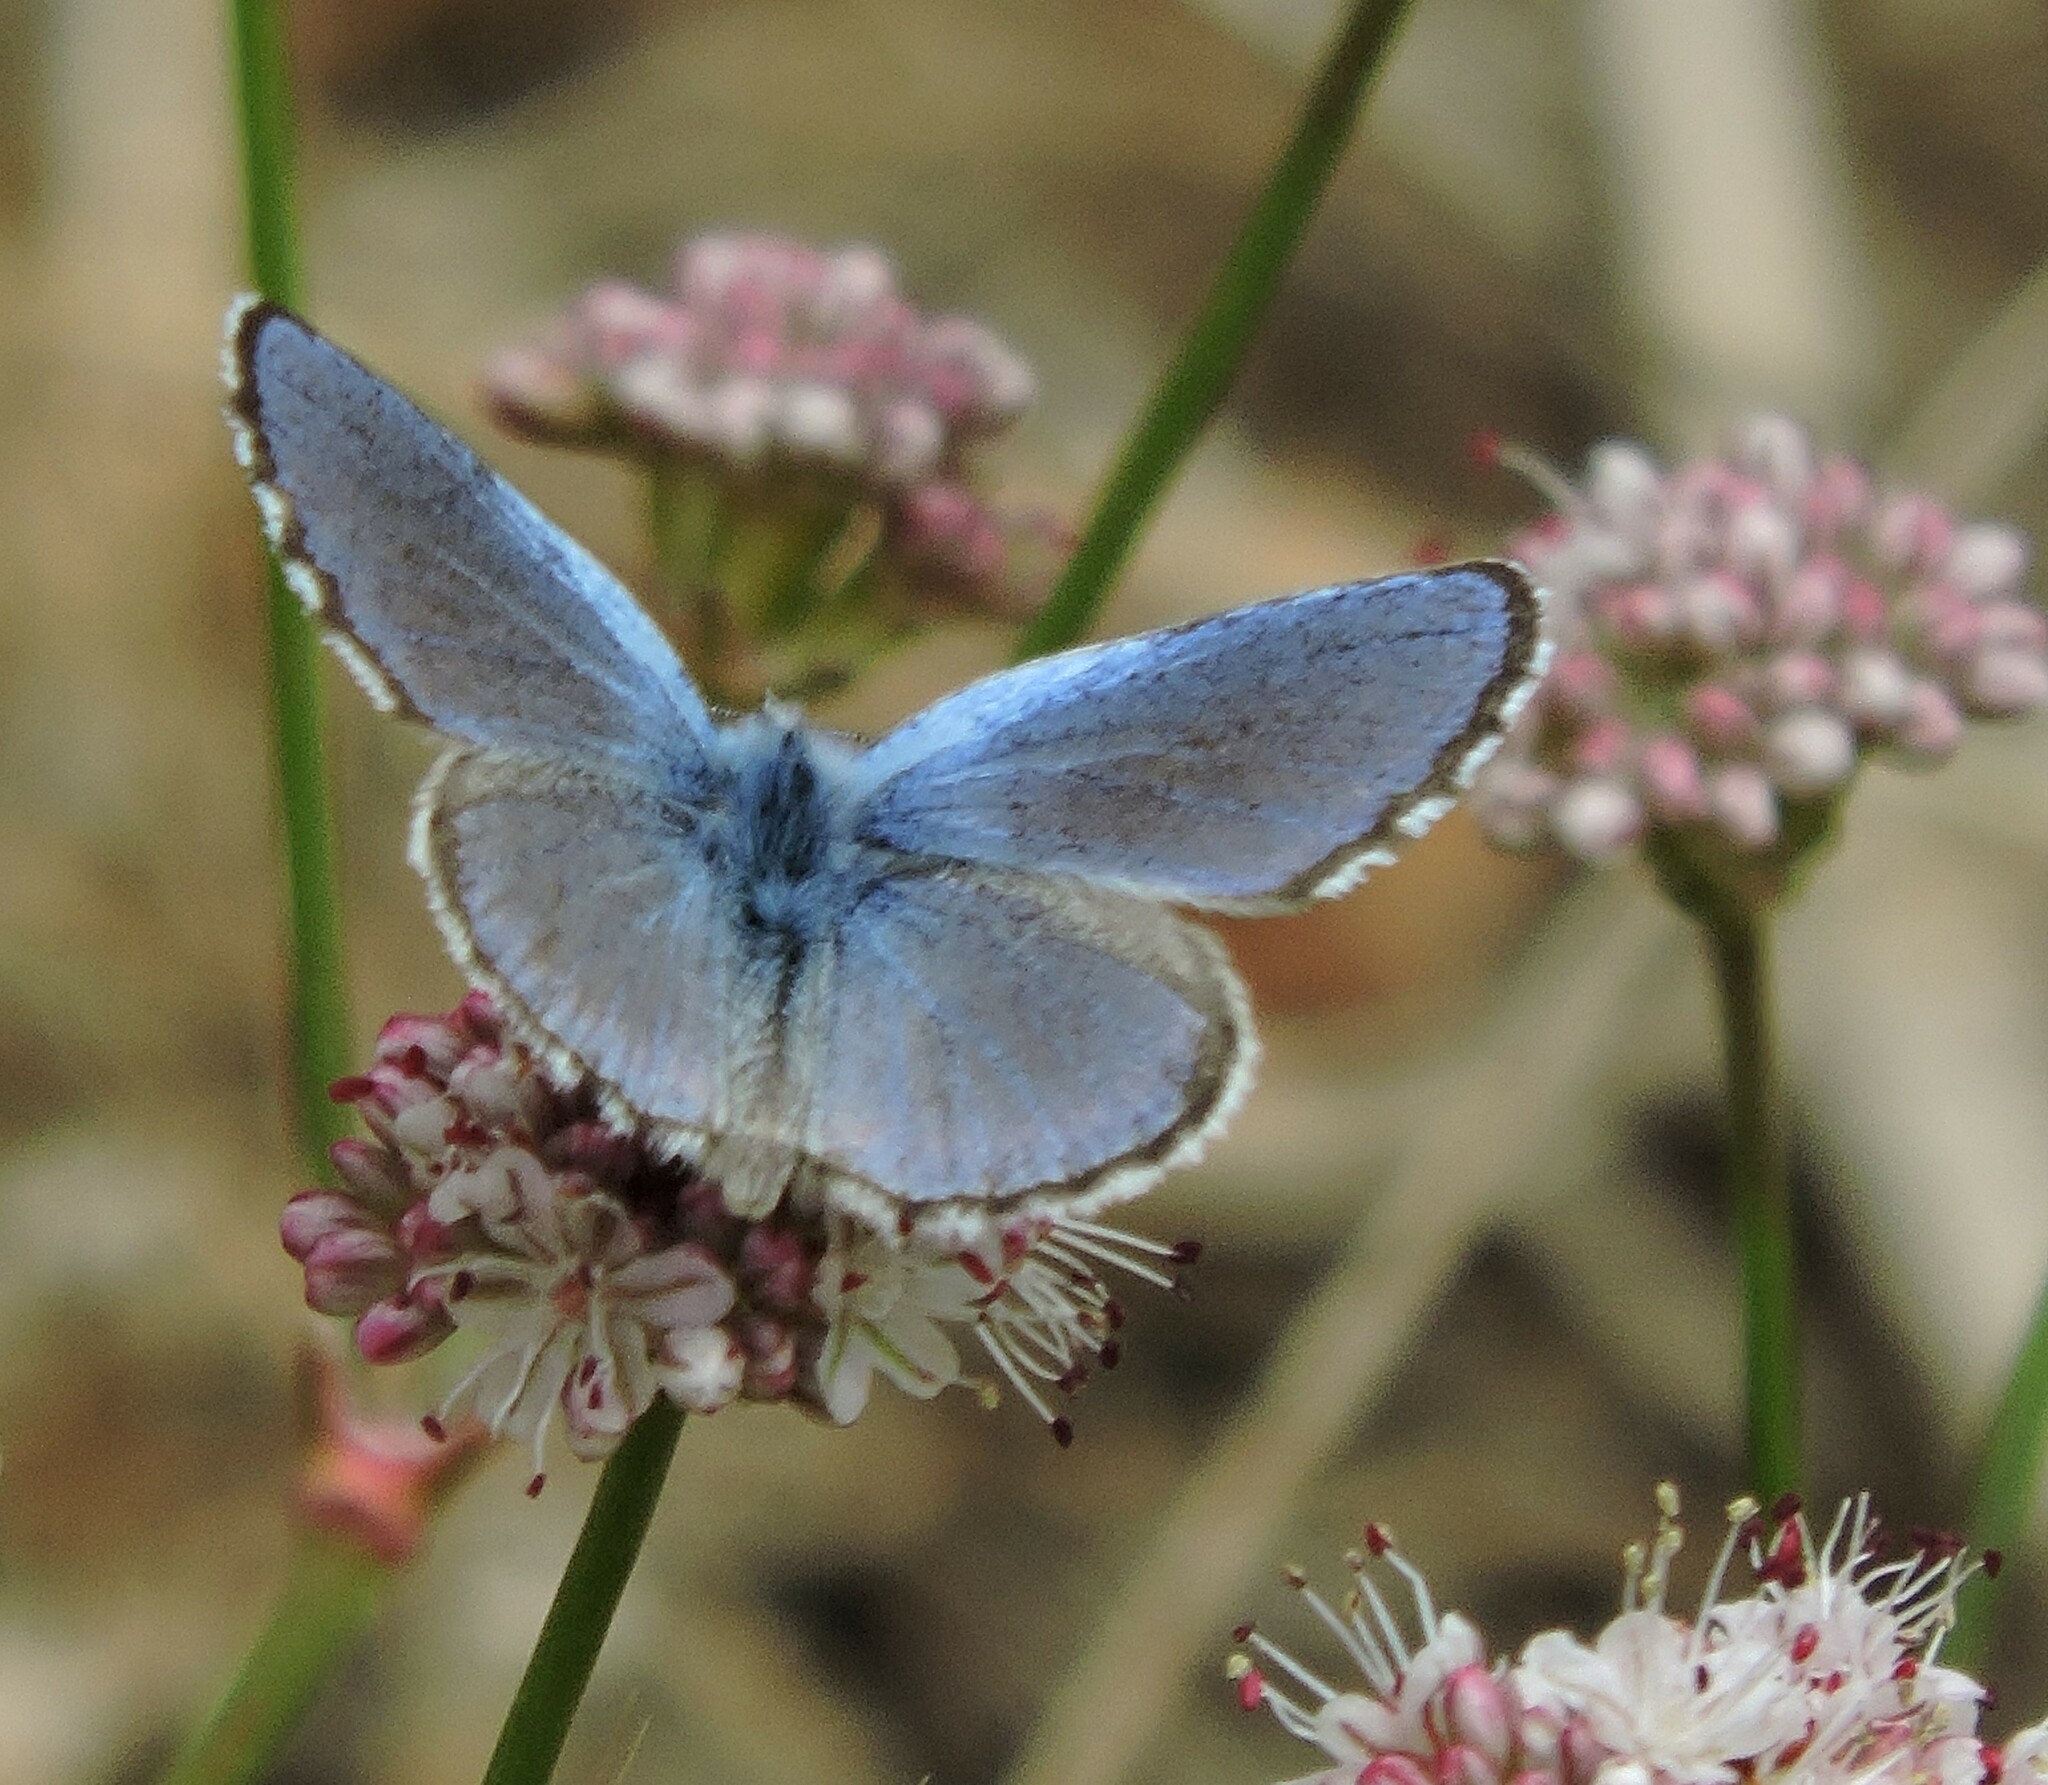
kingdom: Animalia
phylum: Arthropoda
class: Insecta
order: Lepidoptera
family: Lycaenidae
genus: Euphilotes
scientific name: Euphilotes enoptes
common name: Dotted blue
